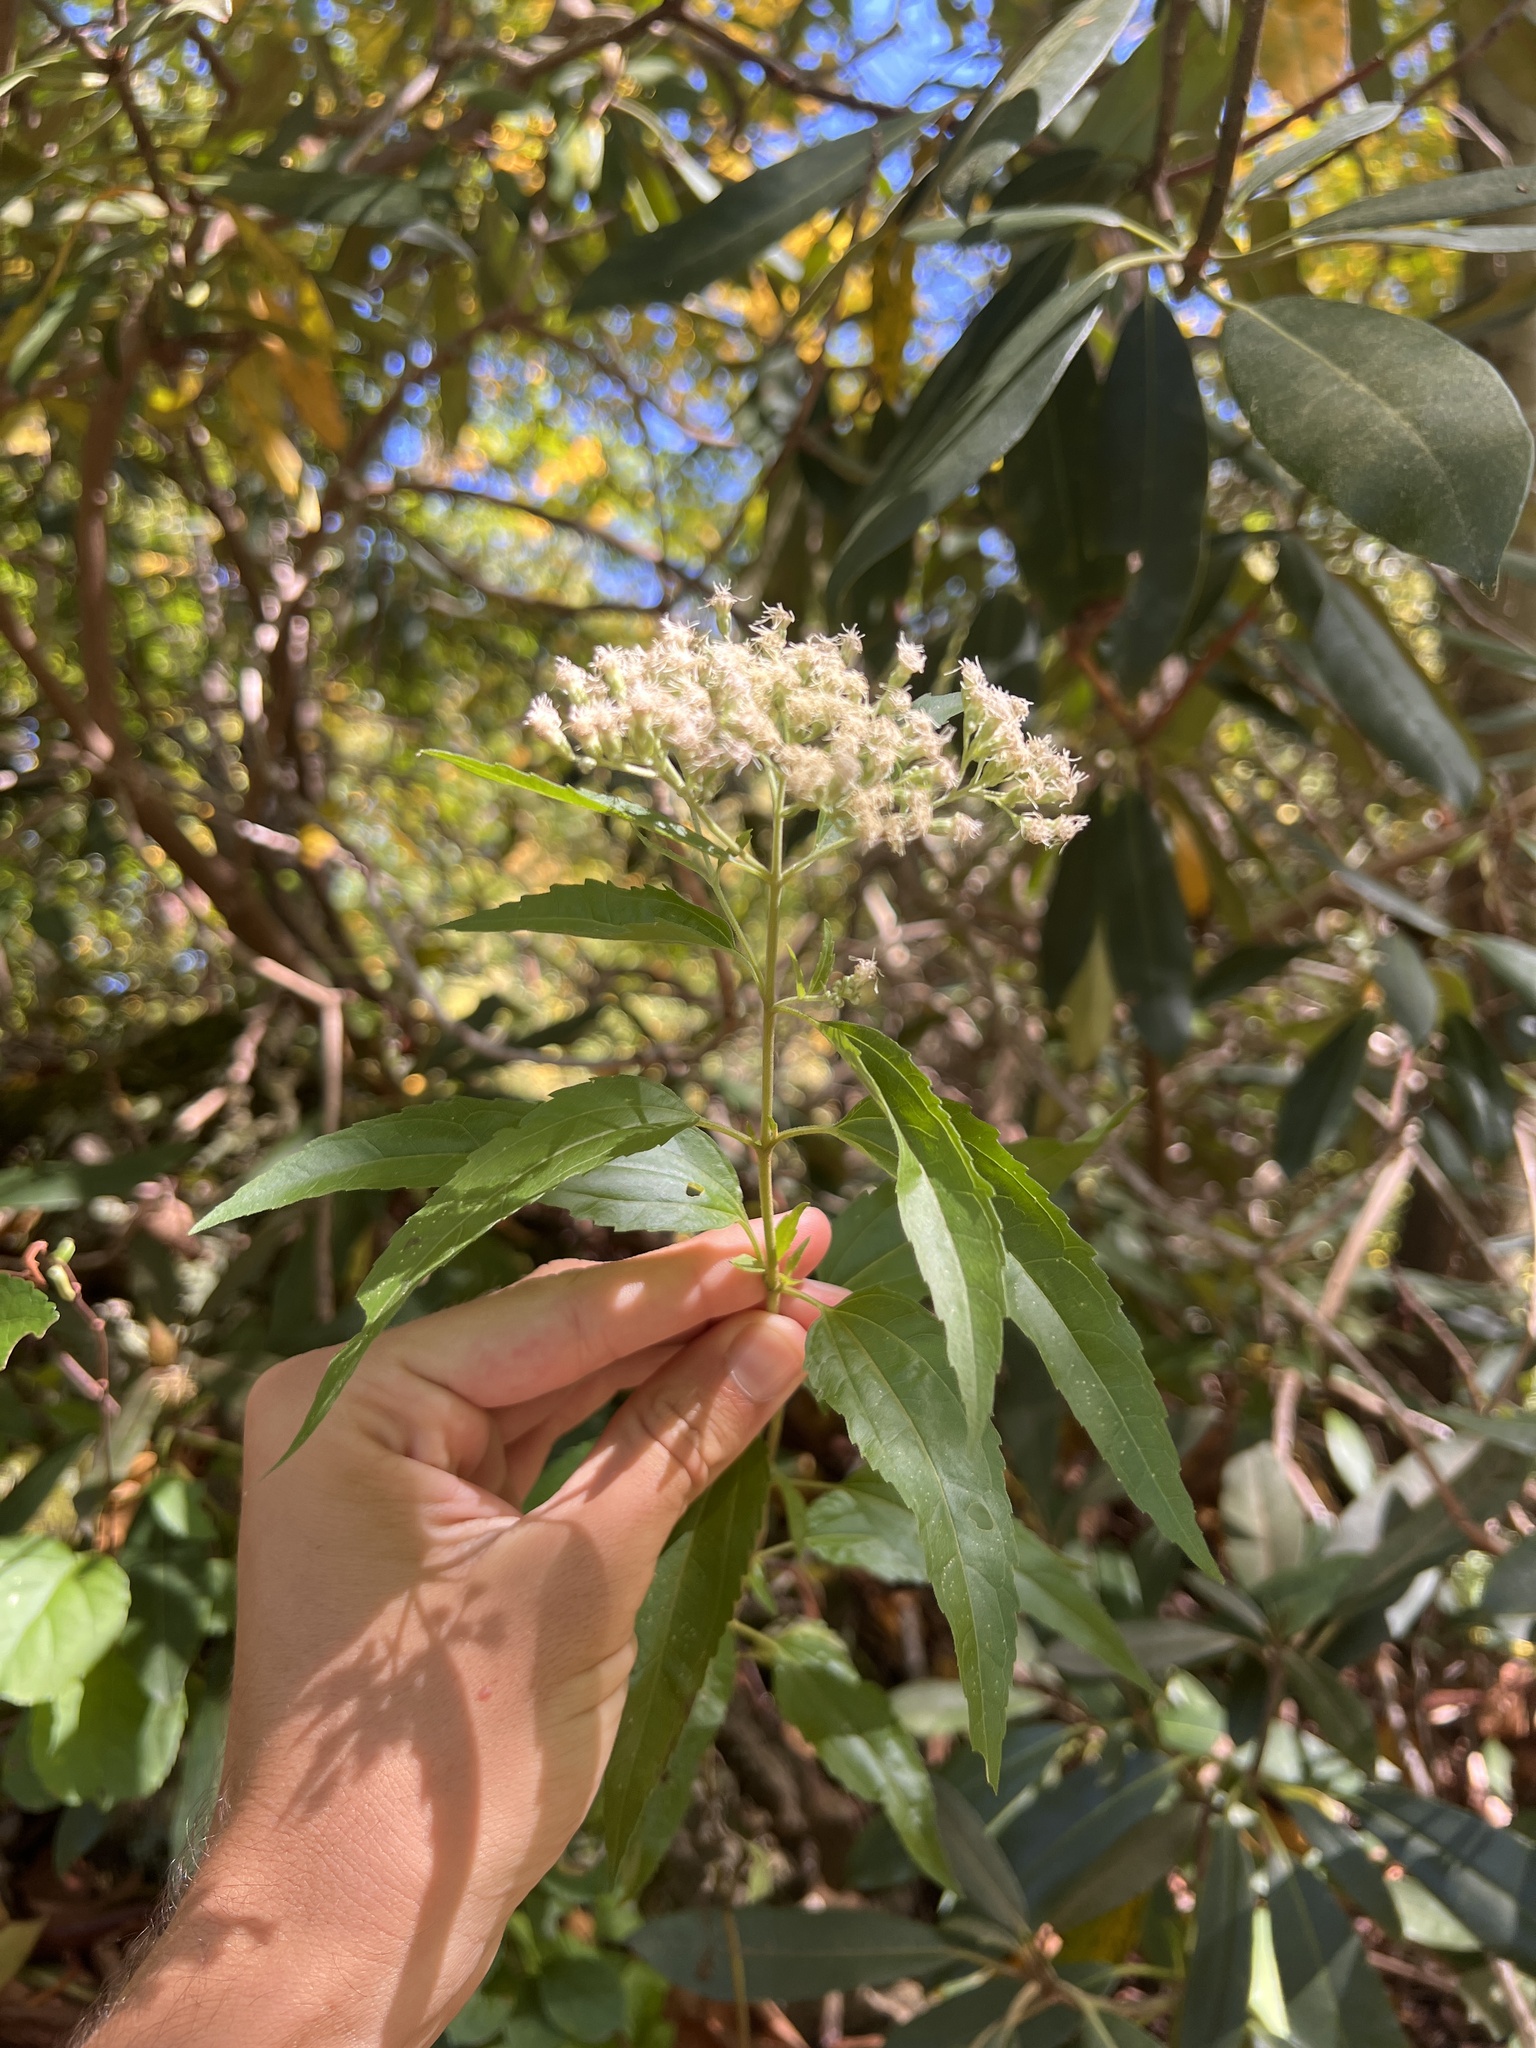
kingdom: Plantae
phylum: Tracheophyta
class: Magnoliopsida
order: Asterales
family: Asteraceae
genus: Eupatorium
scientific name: Eupatorium serotinum
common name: Late boneset
